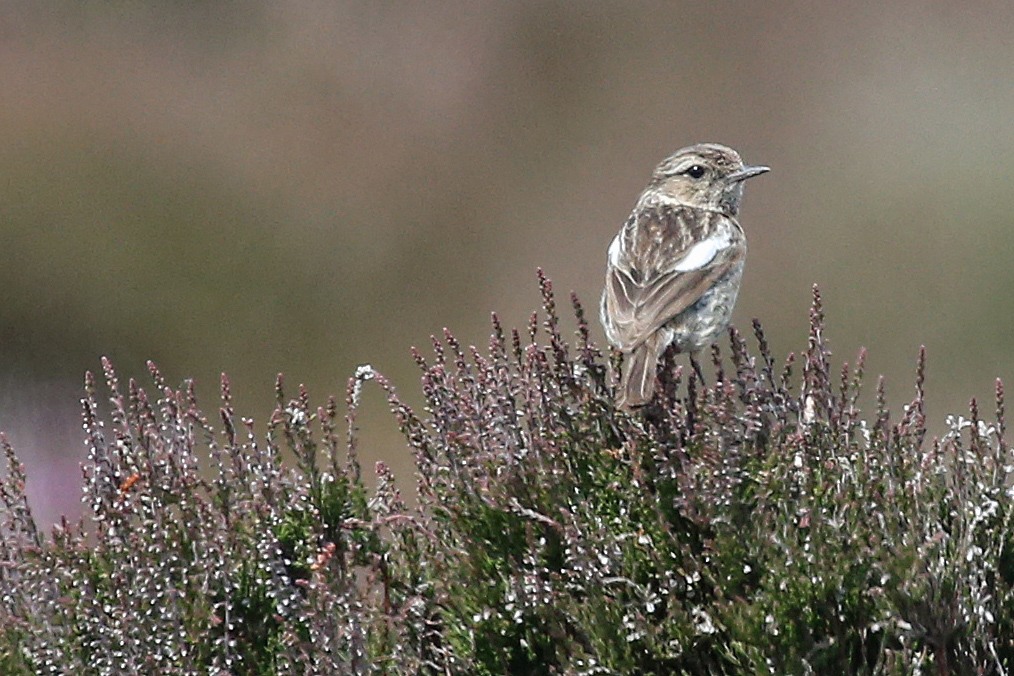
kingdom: Animalia
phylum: Chordata
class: Aves
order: Passeriformes
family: Muscicapidae
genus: Saxicola
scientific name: Saxicola rubicola
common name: European stonechat
